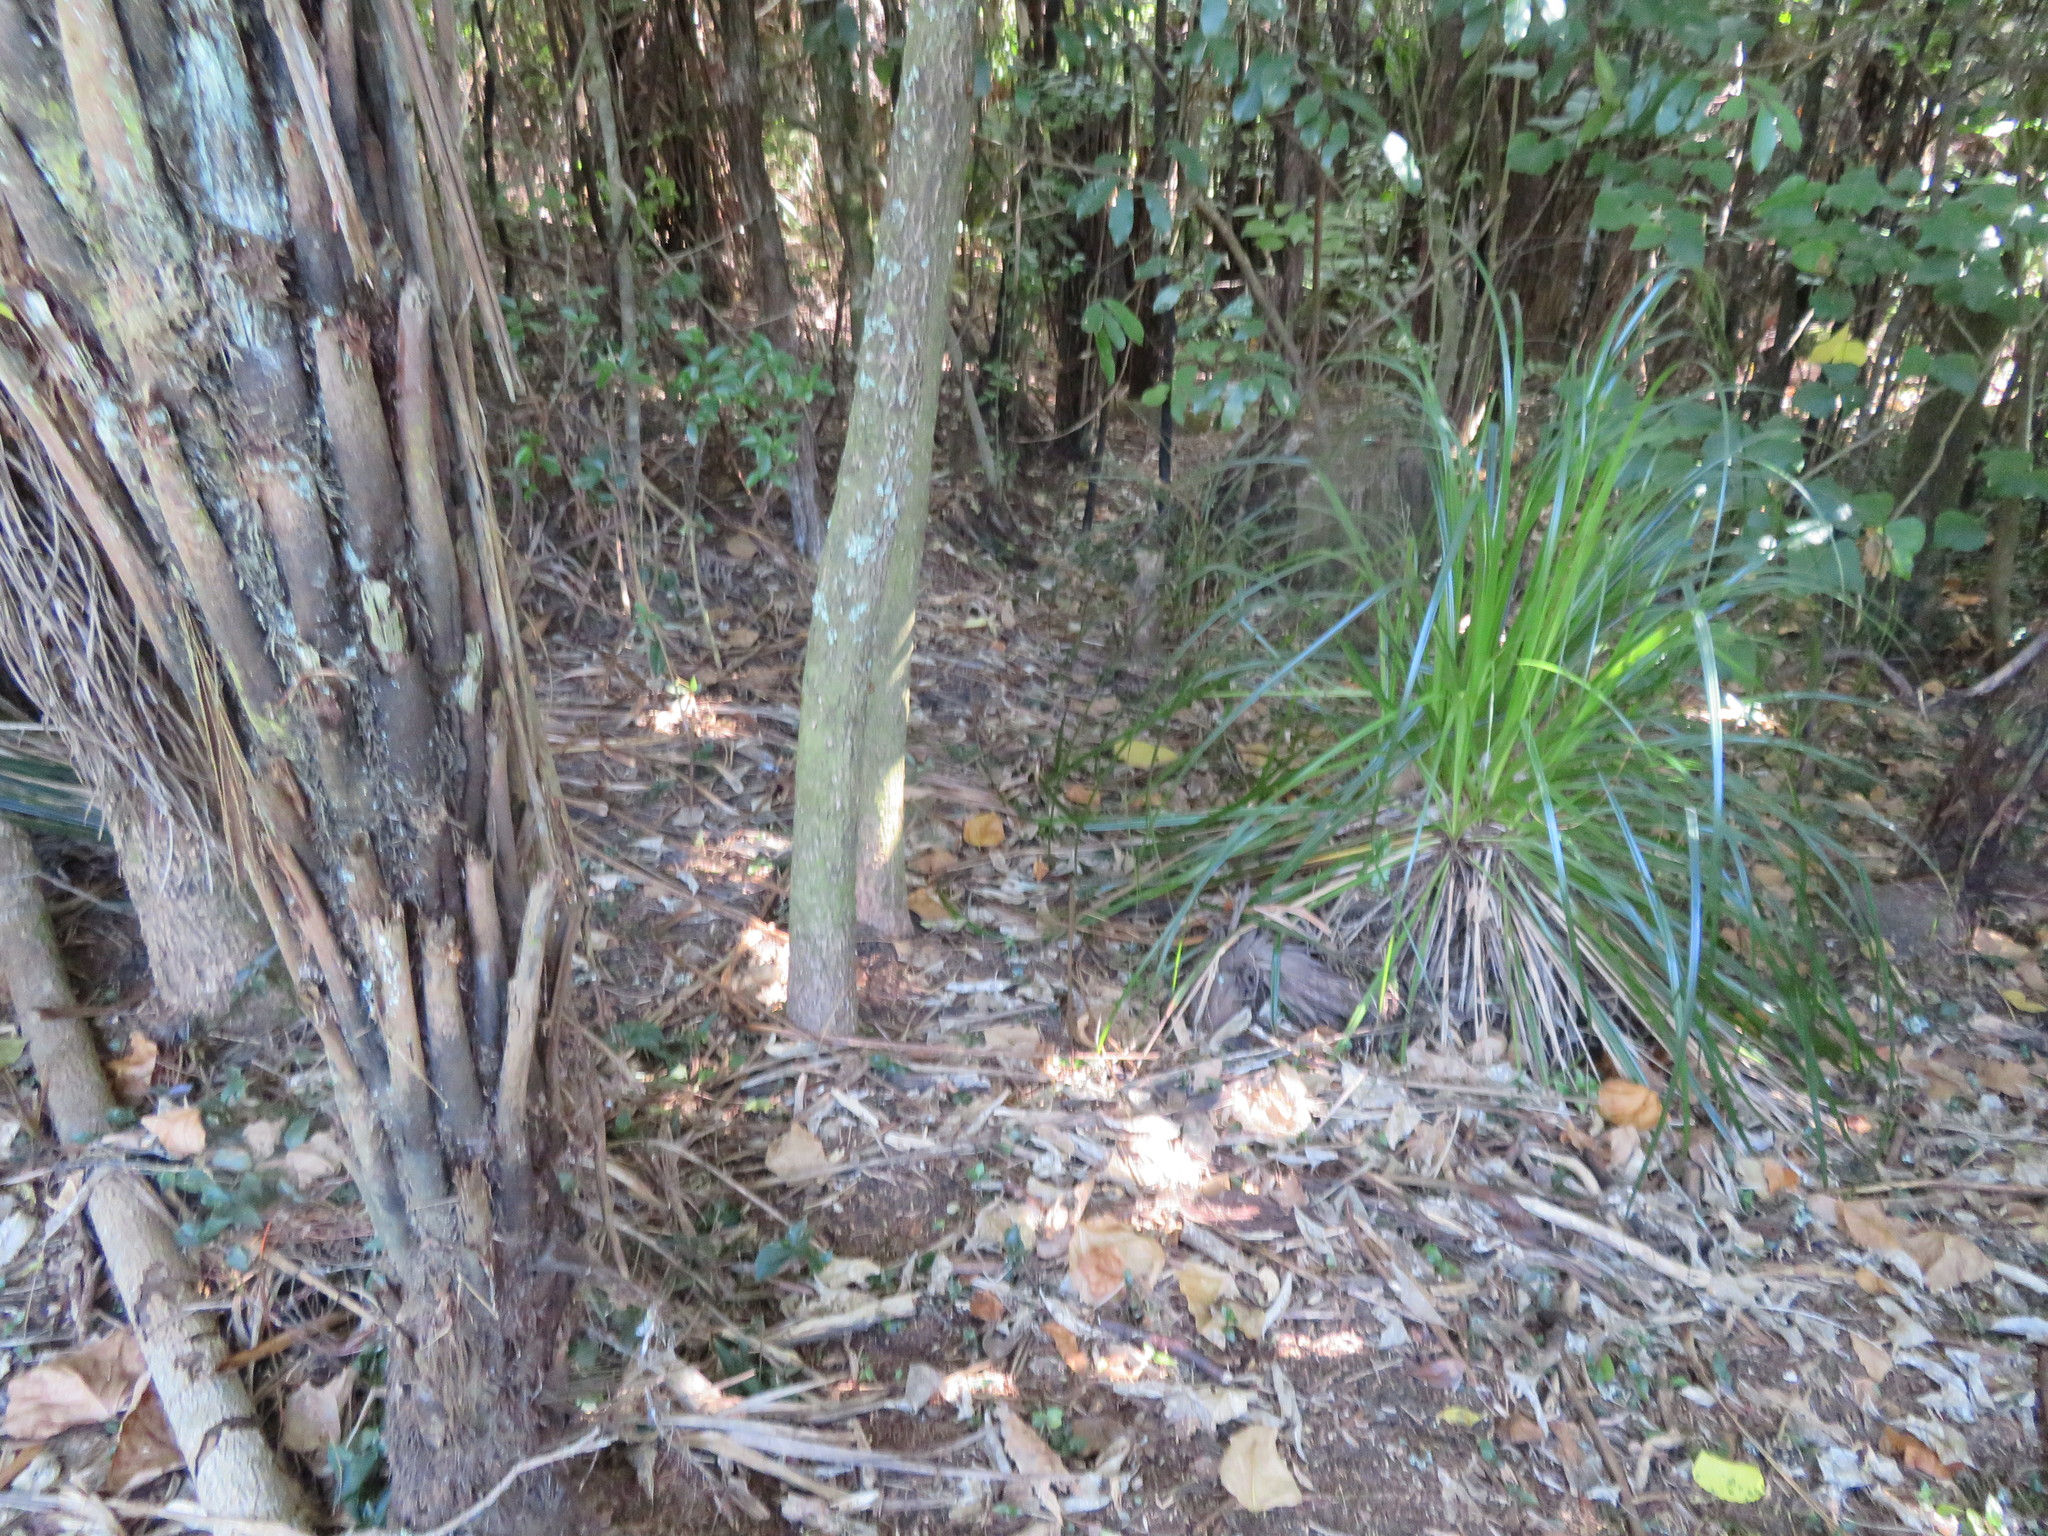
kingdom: Plantae
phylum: Tracheophyta
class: Polypodiopsida
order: Cyatheales
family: Cyatheaceae
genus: Alsophila
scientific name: Alsophila dealbata
